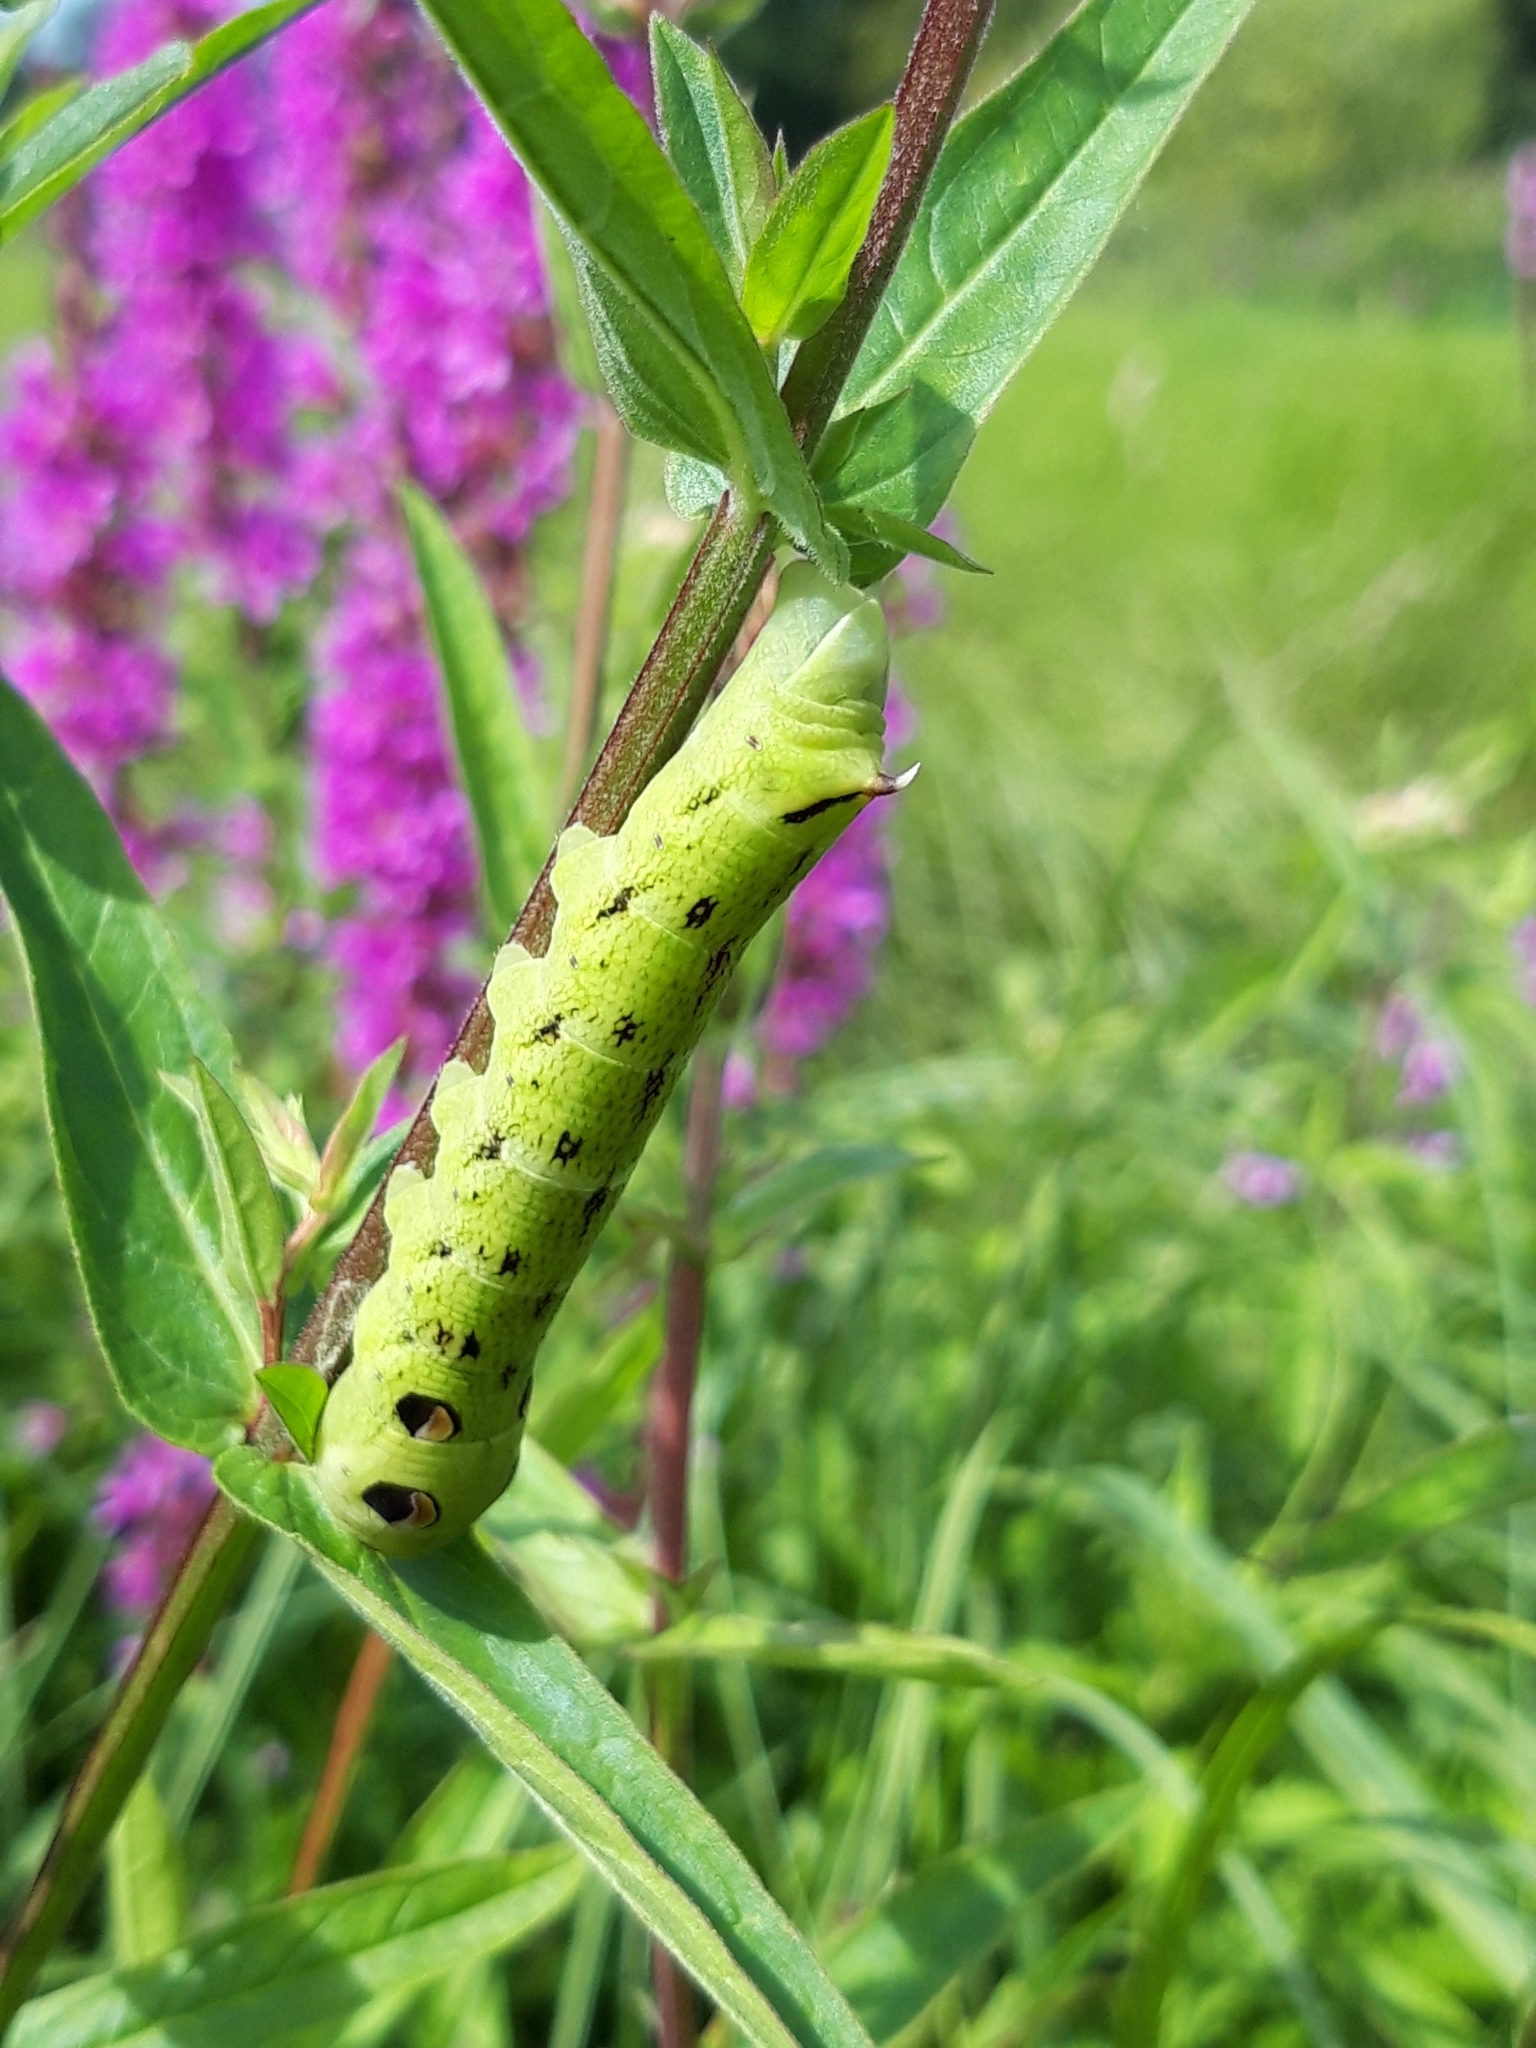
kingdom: Animalia
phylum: Arthropoda
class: Insecta
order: Lepidoptera
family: Sphingidae
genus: Deilephila
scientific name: Deilephila elpenor
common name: Elephant hawk-moth
